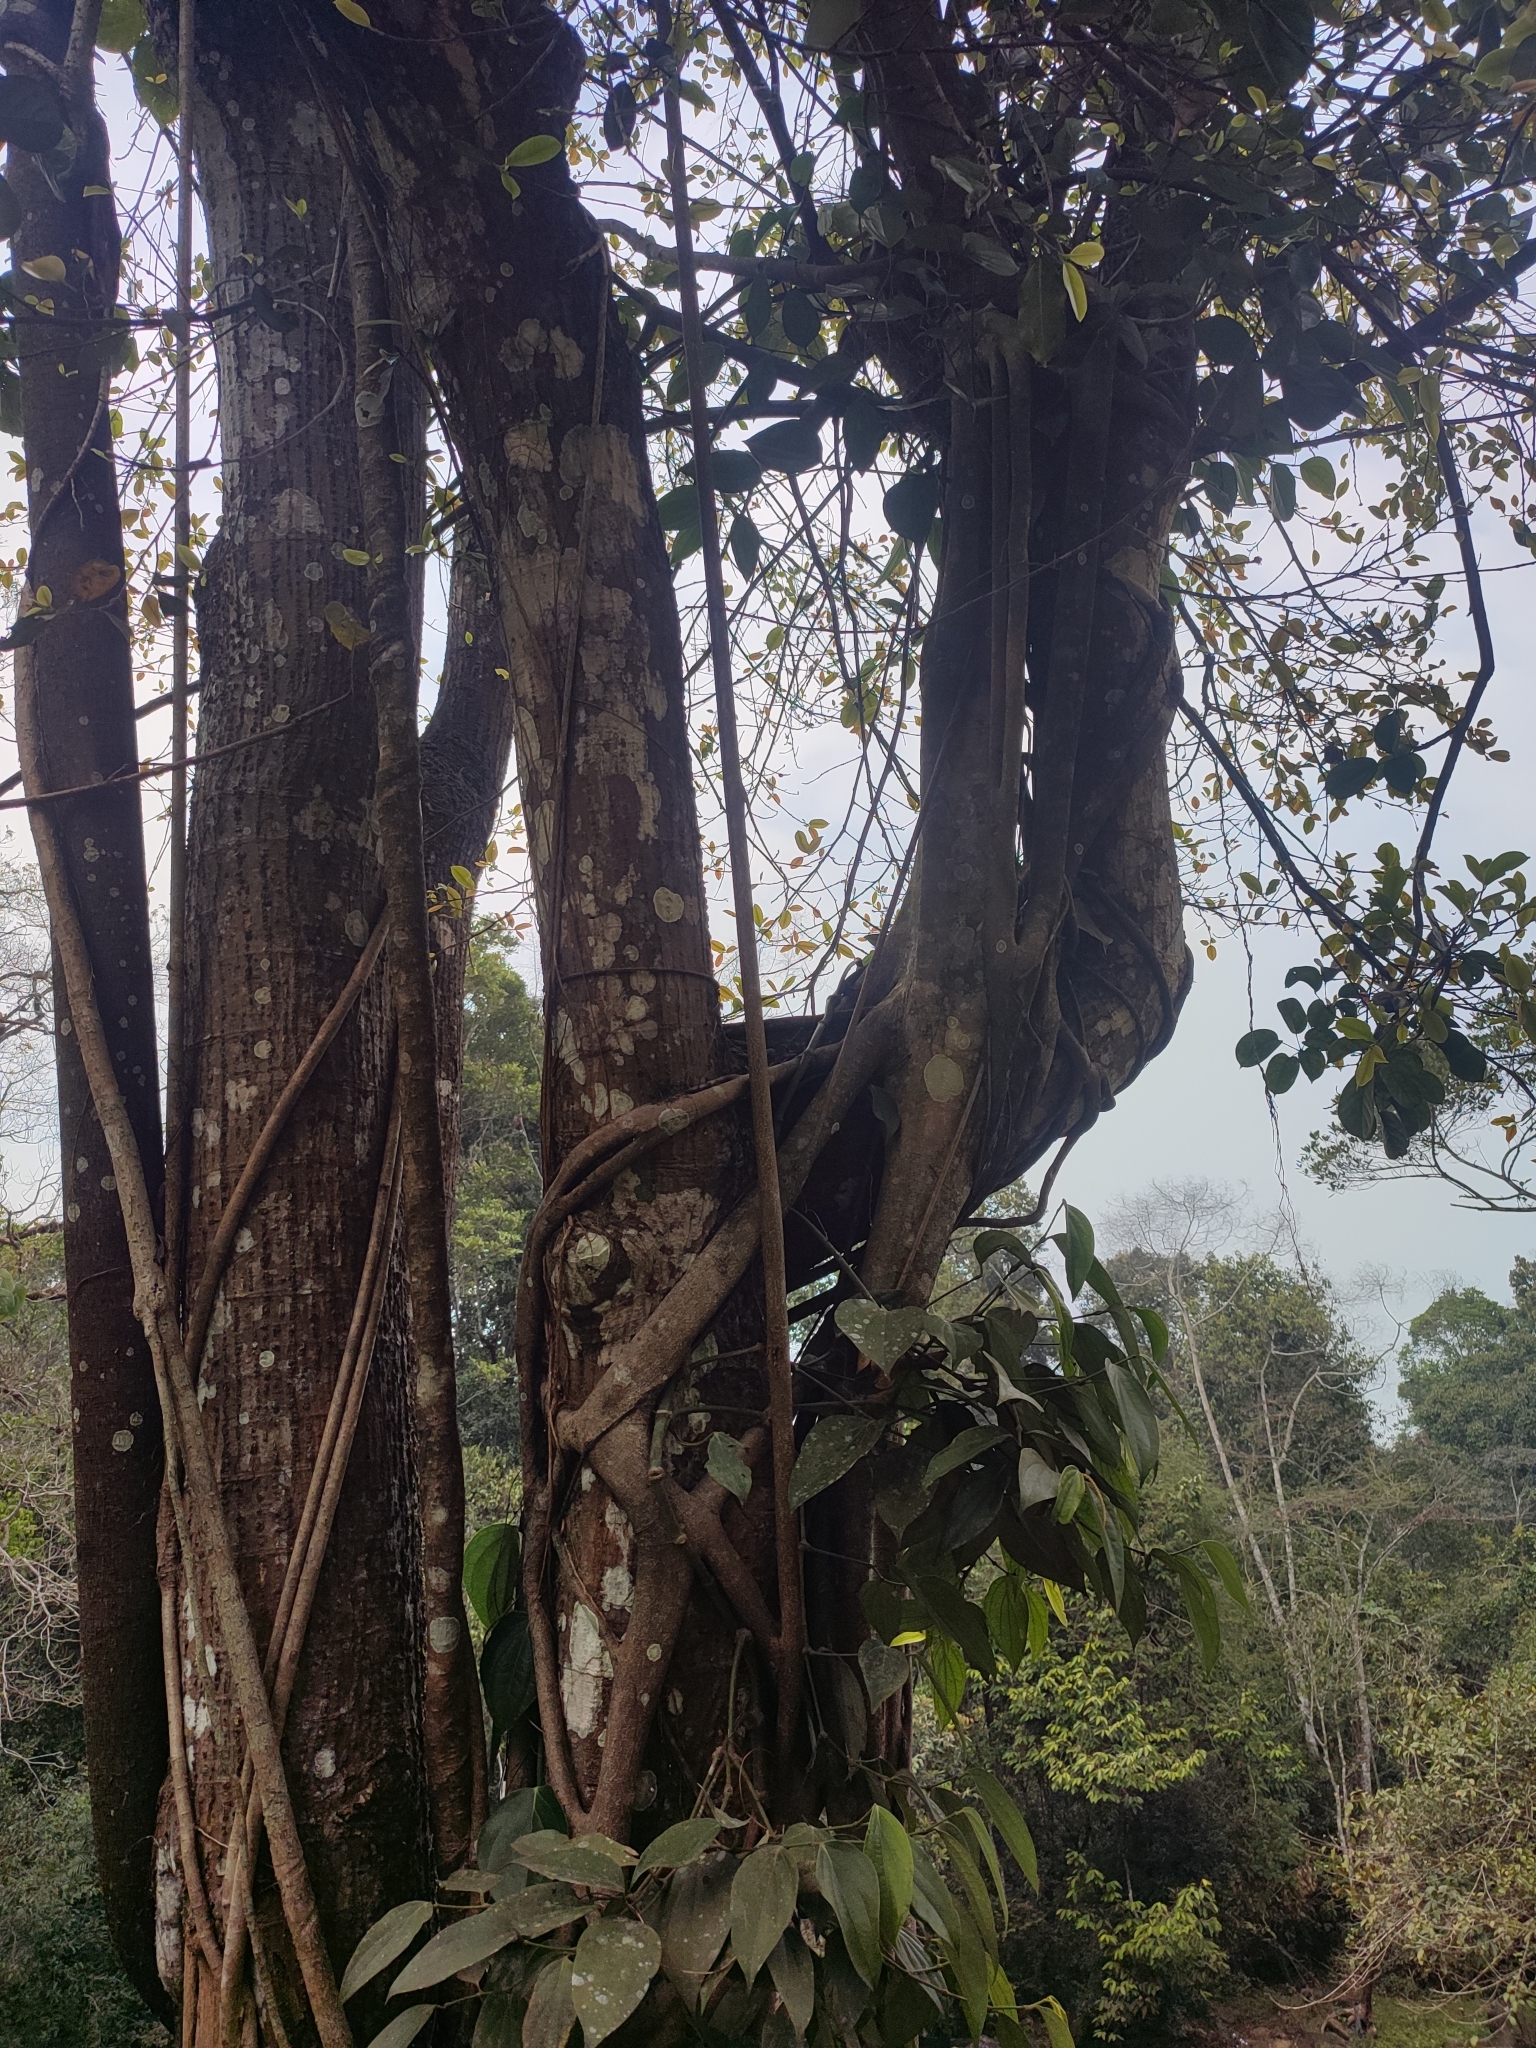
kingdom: Plantae
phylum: Tracheophyta
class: Magnoliopsida
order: Rosales
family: Moraceae
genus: Ficus
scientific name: Ficus microcarpa
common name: Chinese banyan
